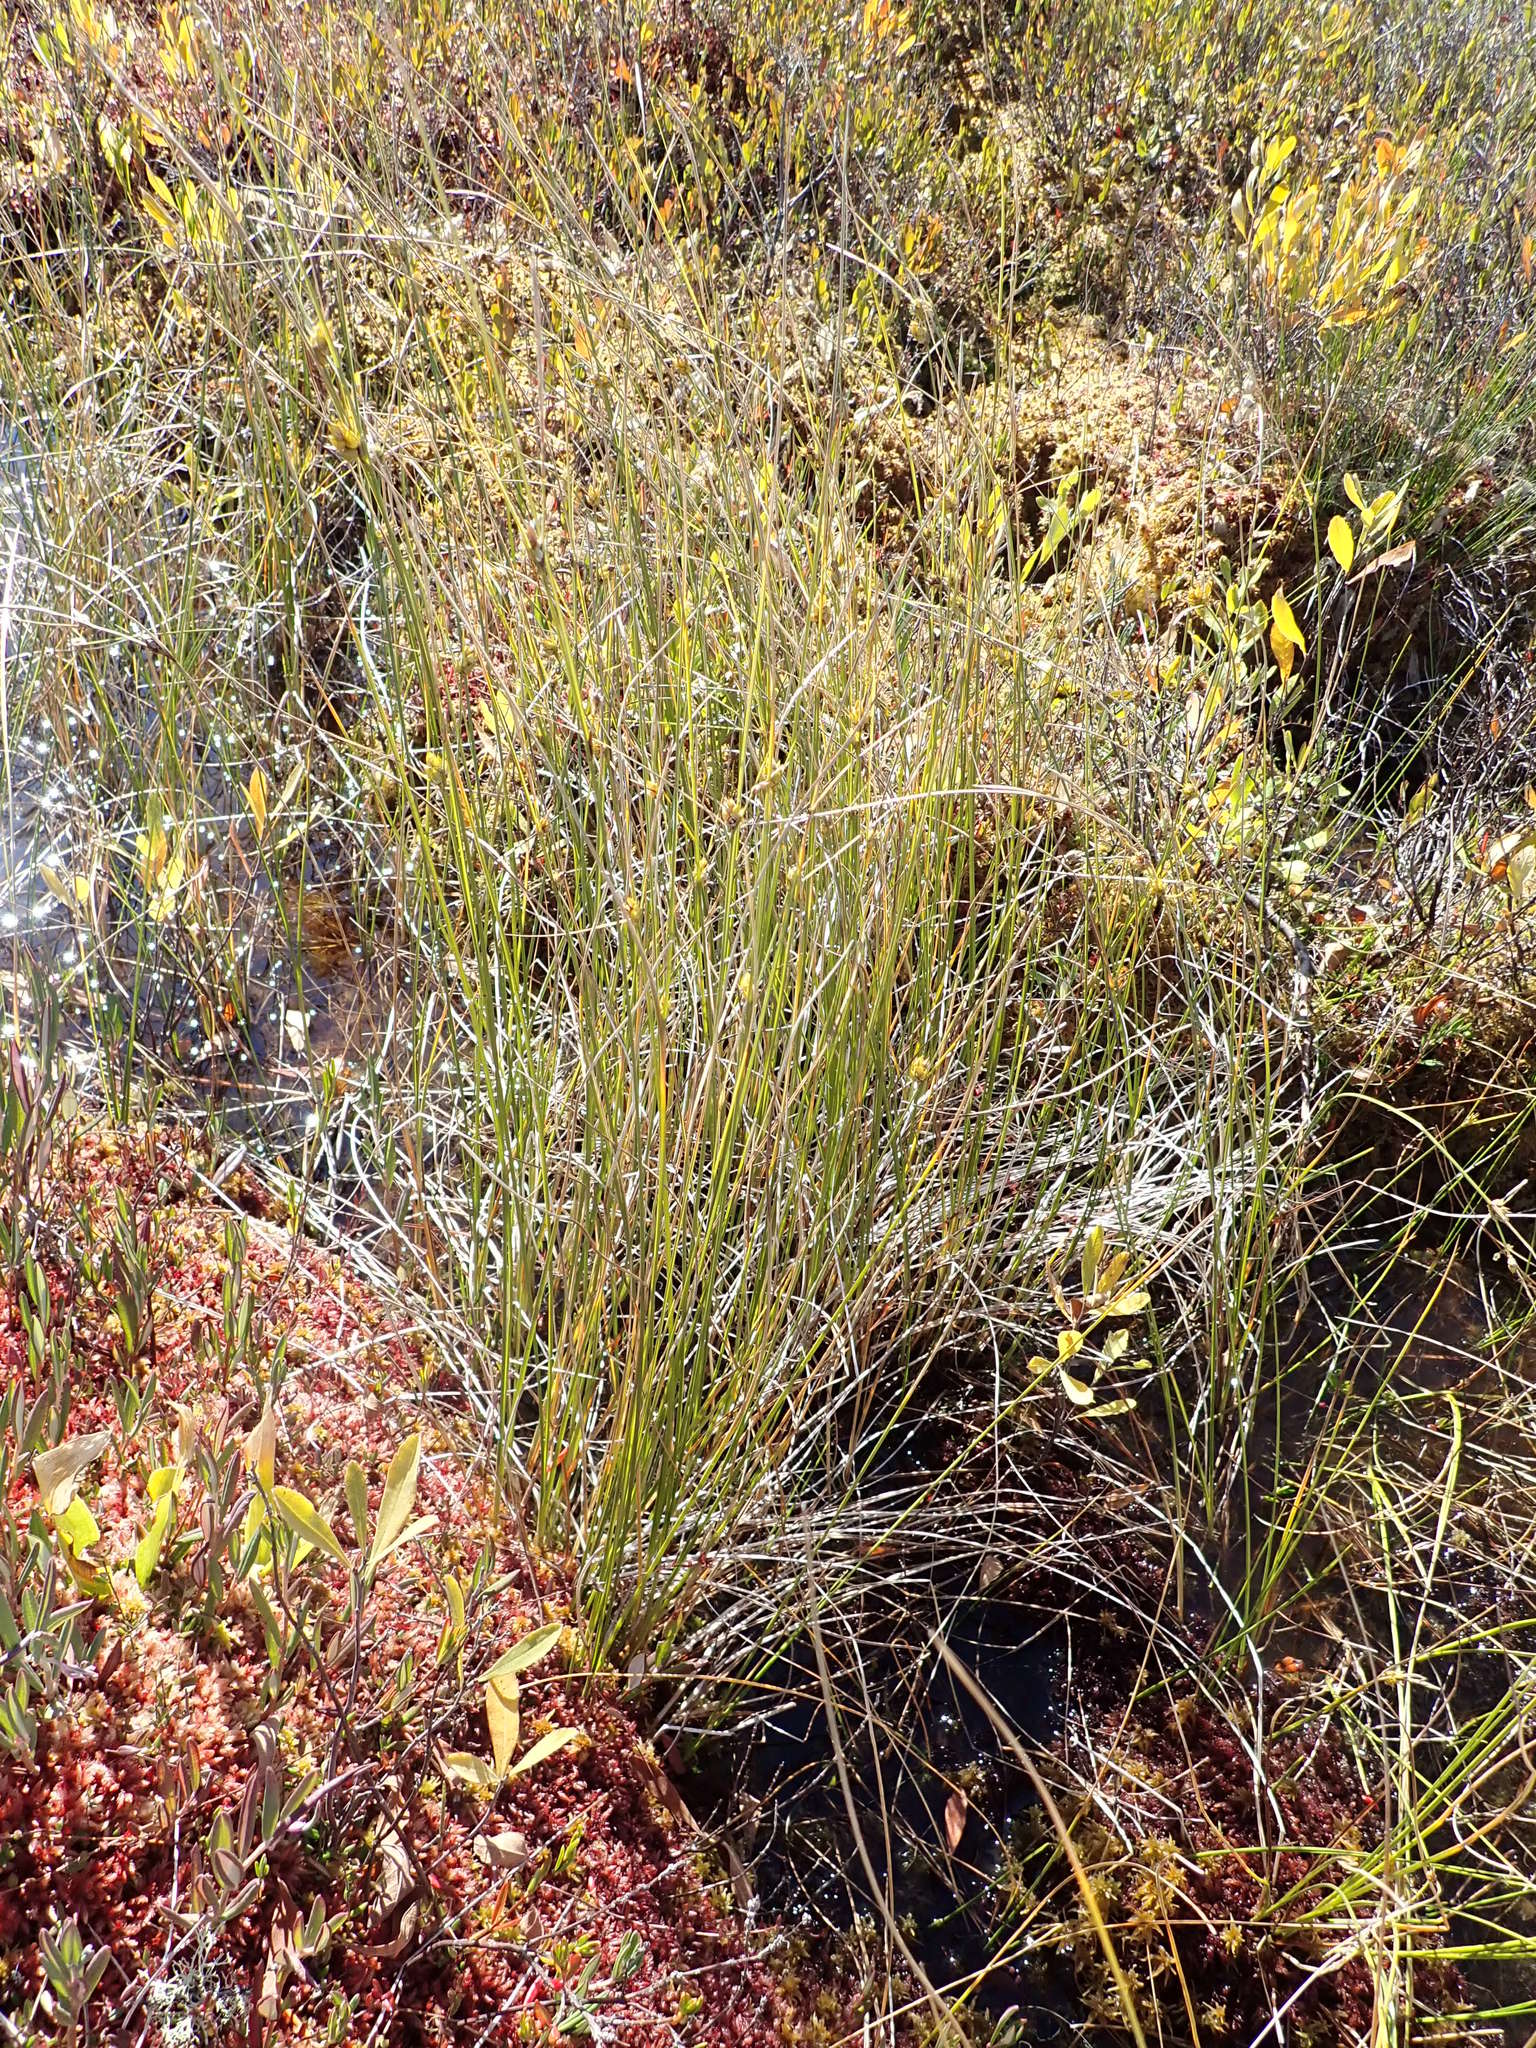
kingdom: Plantae
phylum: Tracheophyta
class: Liliopsida
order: Poales
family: Cyperaceae
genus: Carex
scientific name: Carex oligosperma
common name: Few-seed sedge
